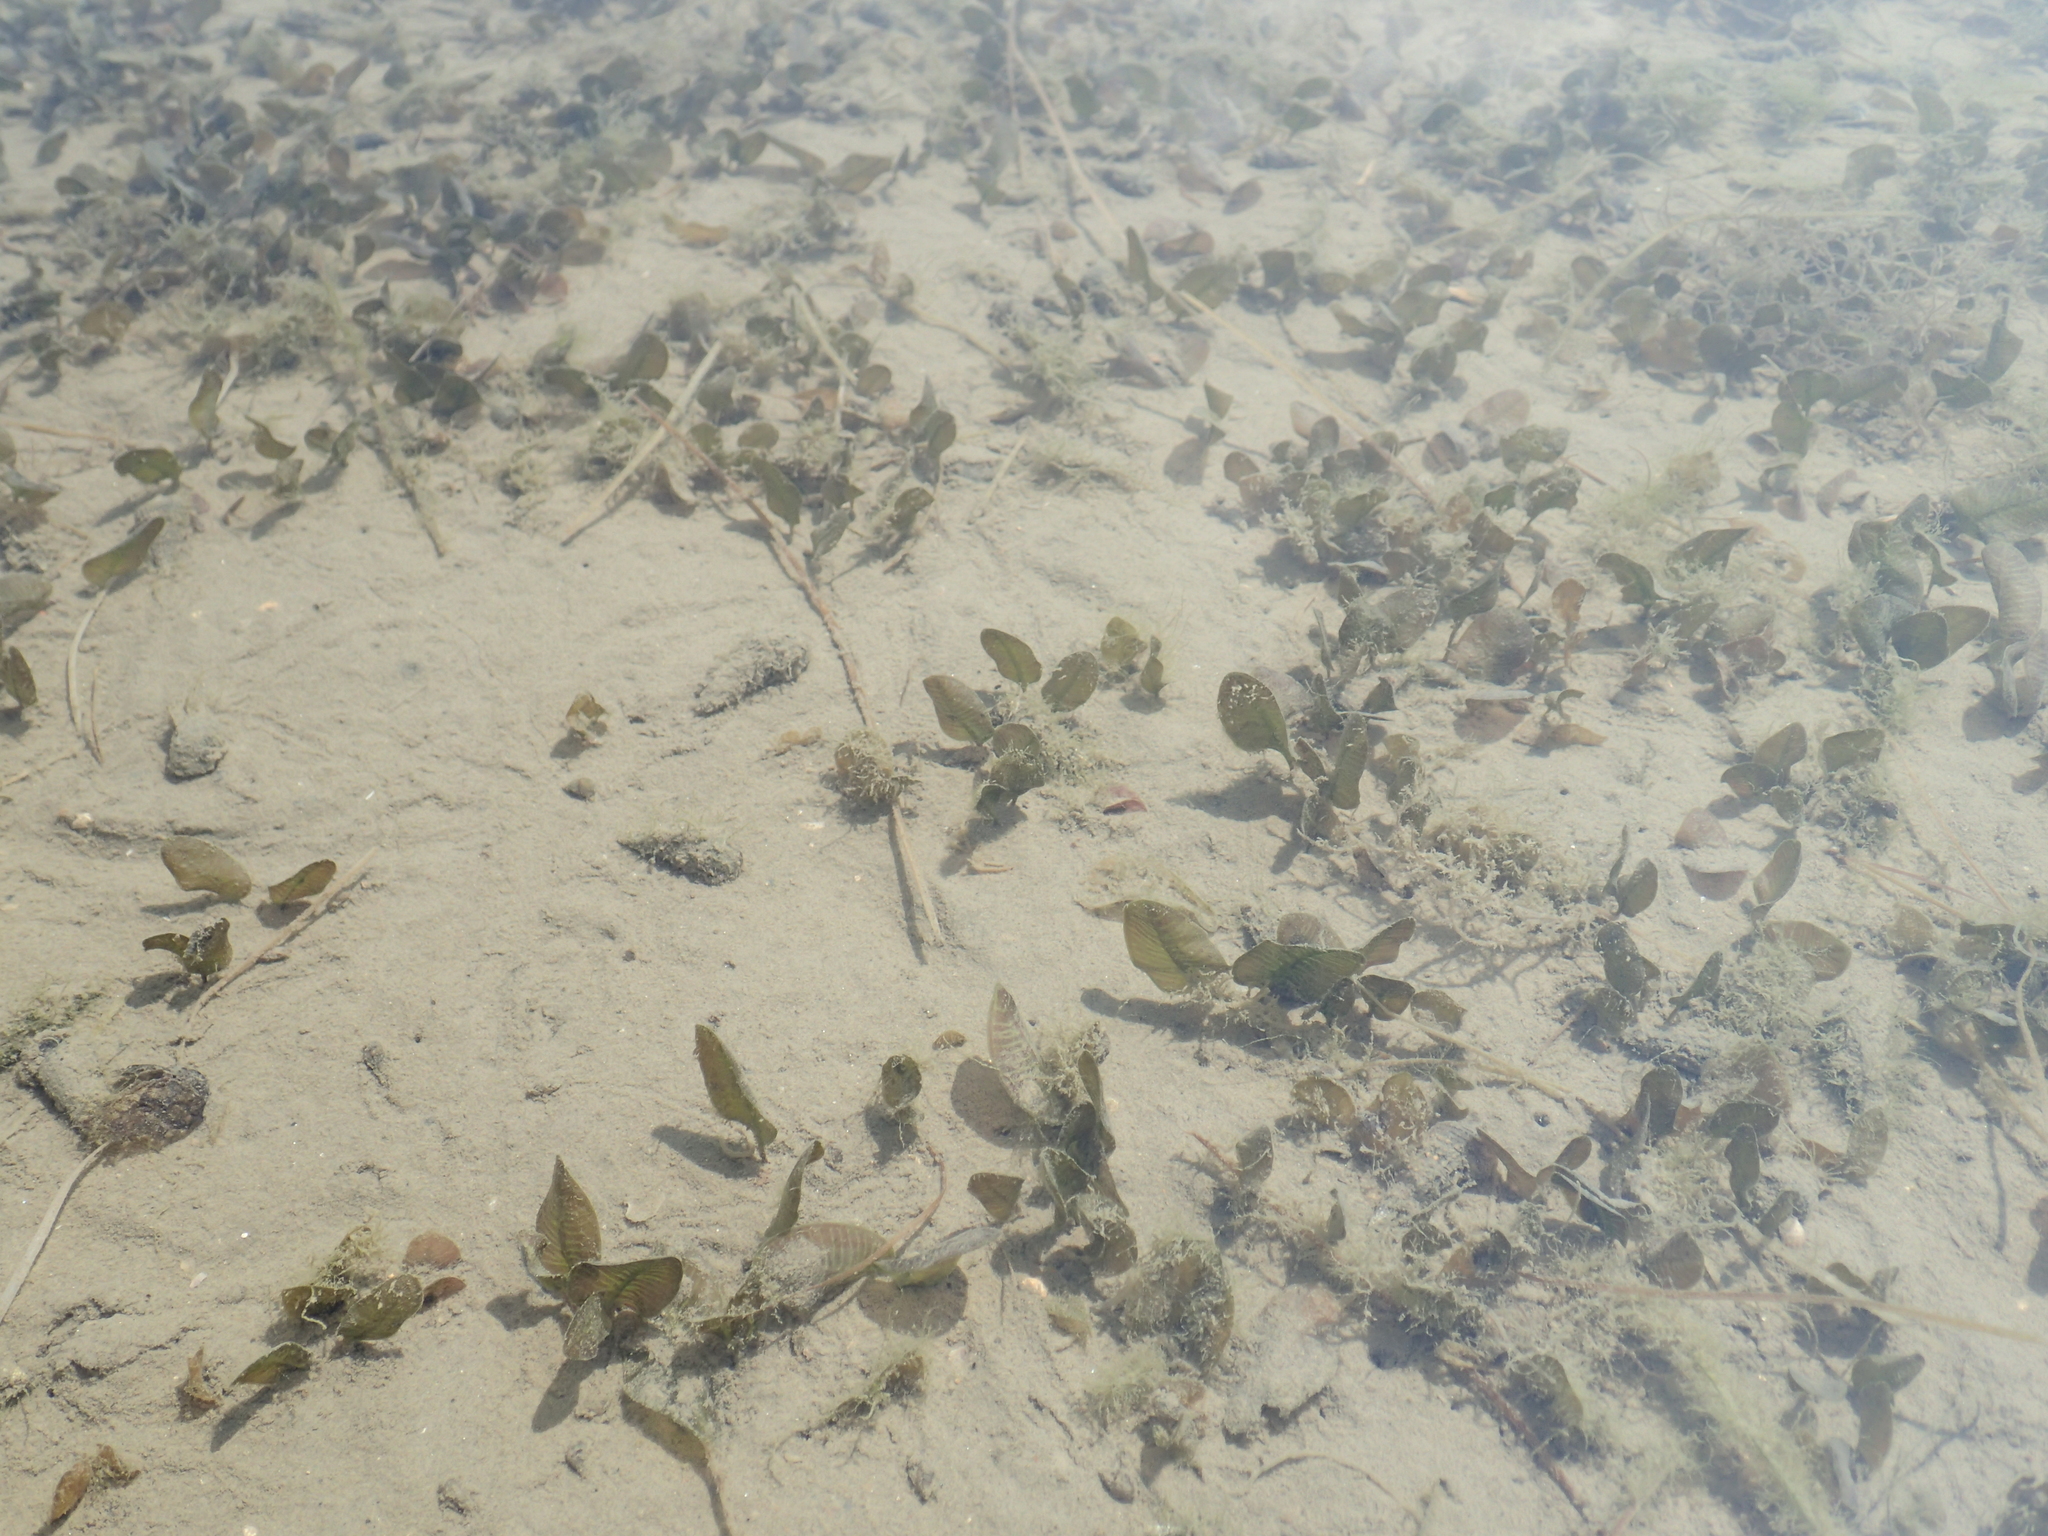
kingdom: Plantae
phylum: Tracheophyta
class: Liliopsida
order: Alismatales
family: Hydrocharitaceae
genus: Halophila
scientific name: Halophila ovalis
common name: Species code: ho
